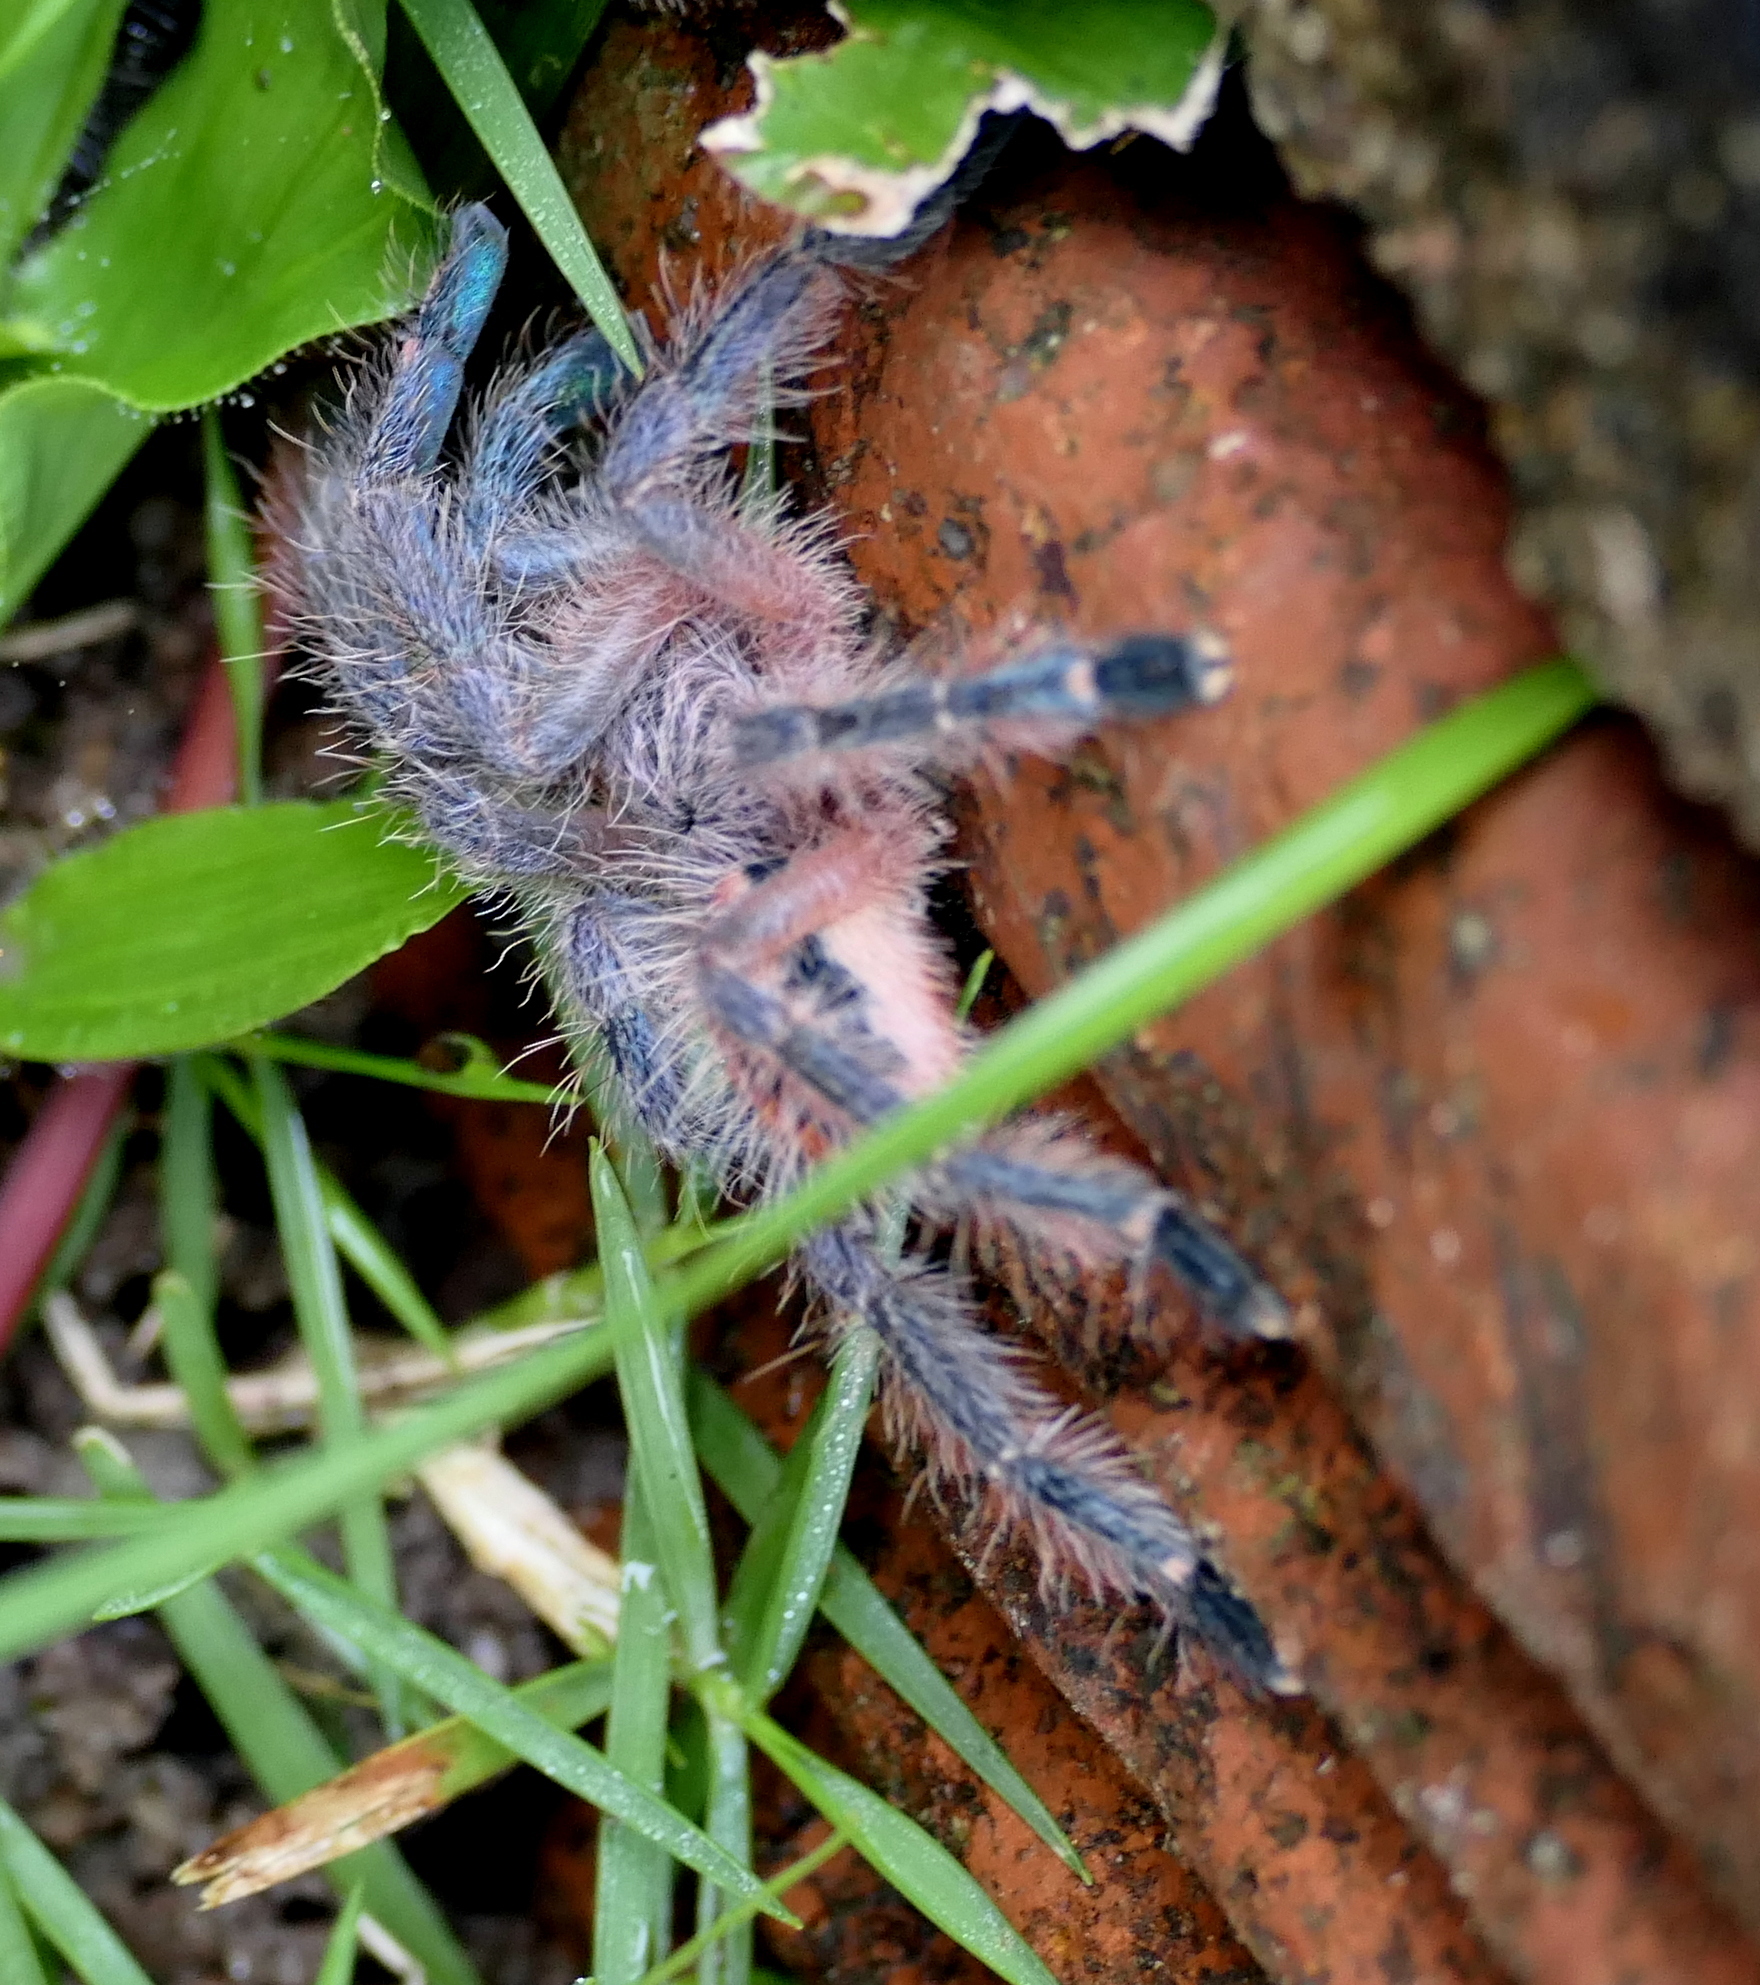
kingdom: Animalia
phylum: Arthropoda
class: Arachnida
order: Araneae
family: Theraphosidae
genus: Iridopelma
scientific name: Iridopelma hirsutum
